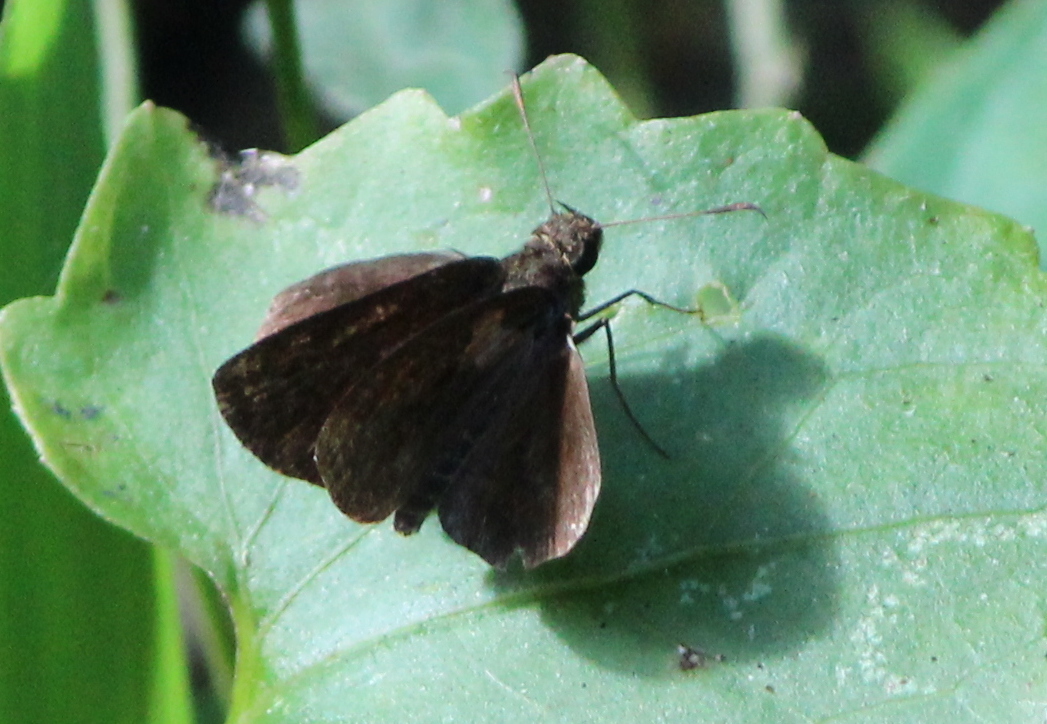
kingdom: Animalia
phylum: Arthropoda
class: Insecta
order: Lepidoptera
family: Hesperiidae
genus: Iambrix
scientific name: Iambrix salsala
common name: Chestnut bob
